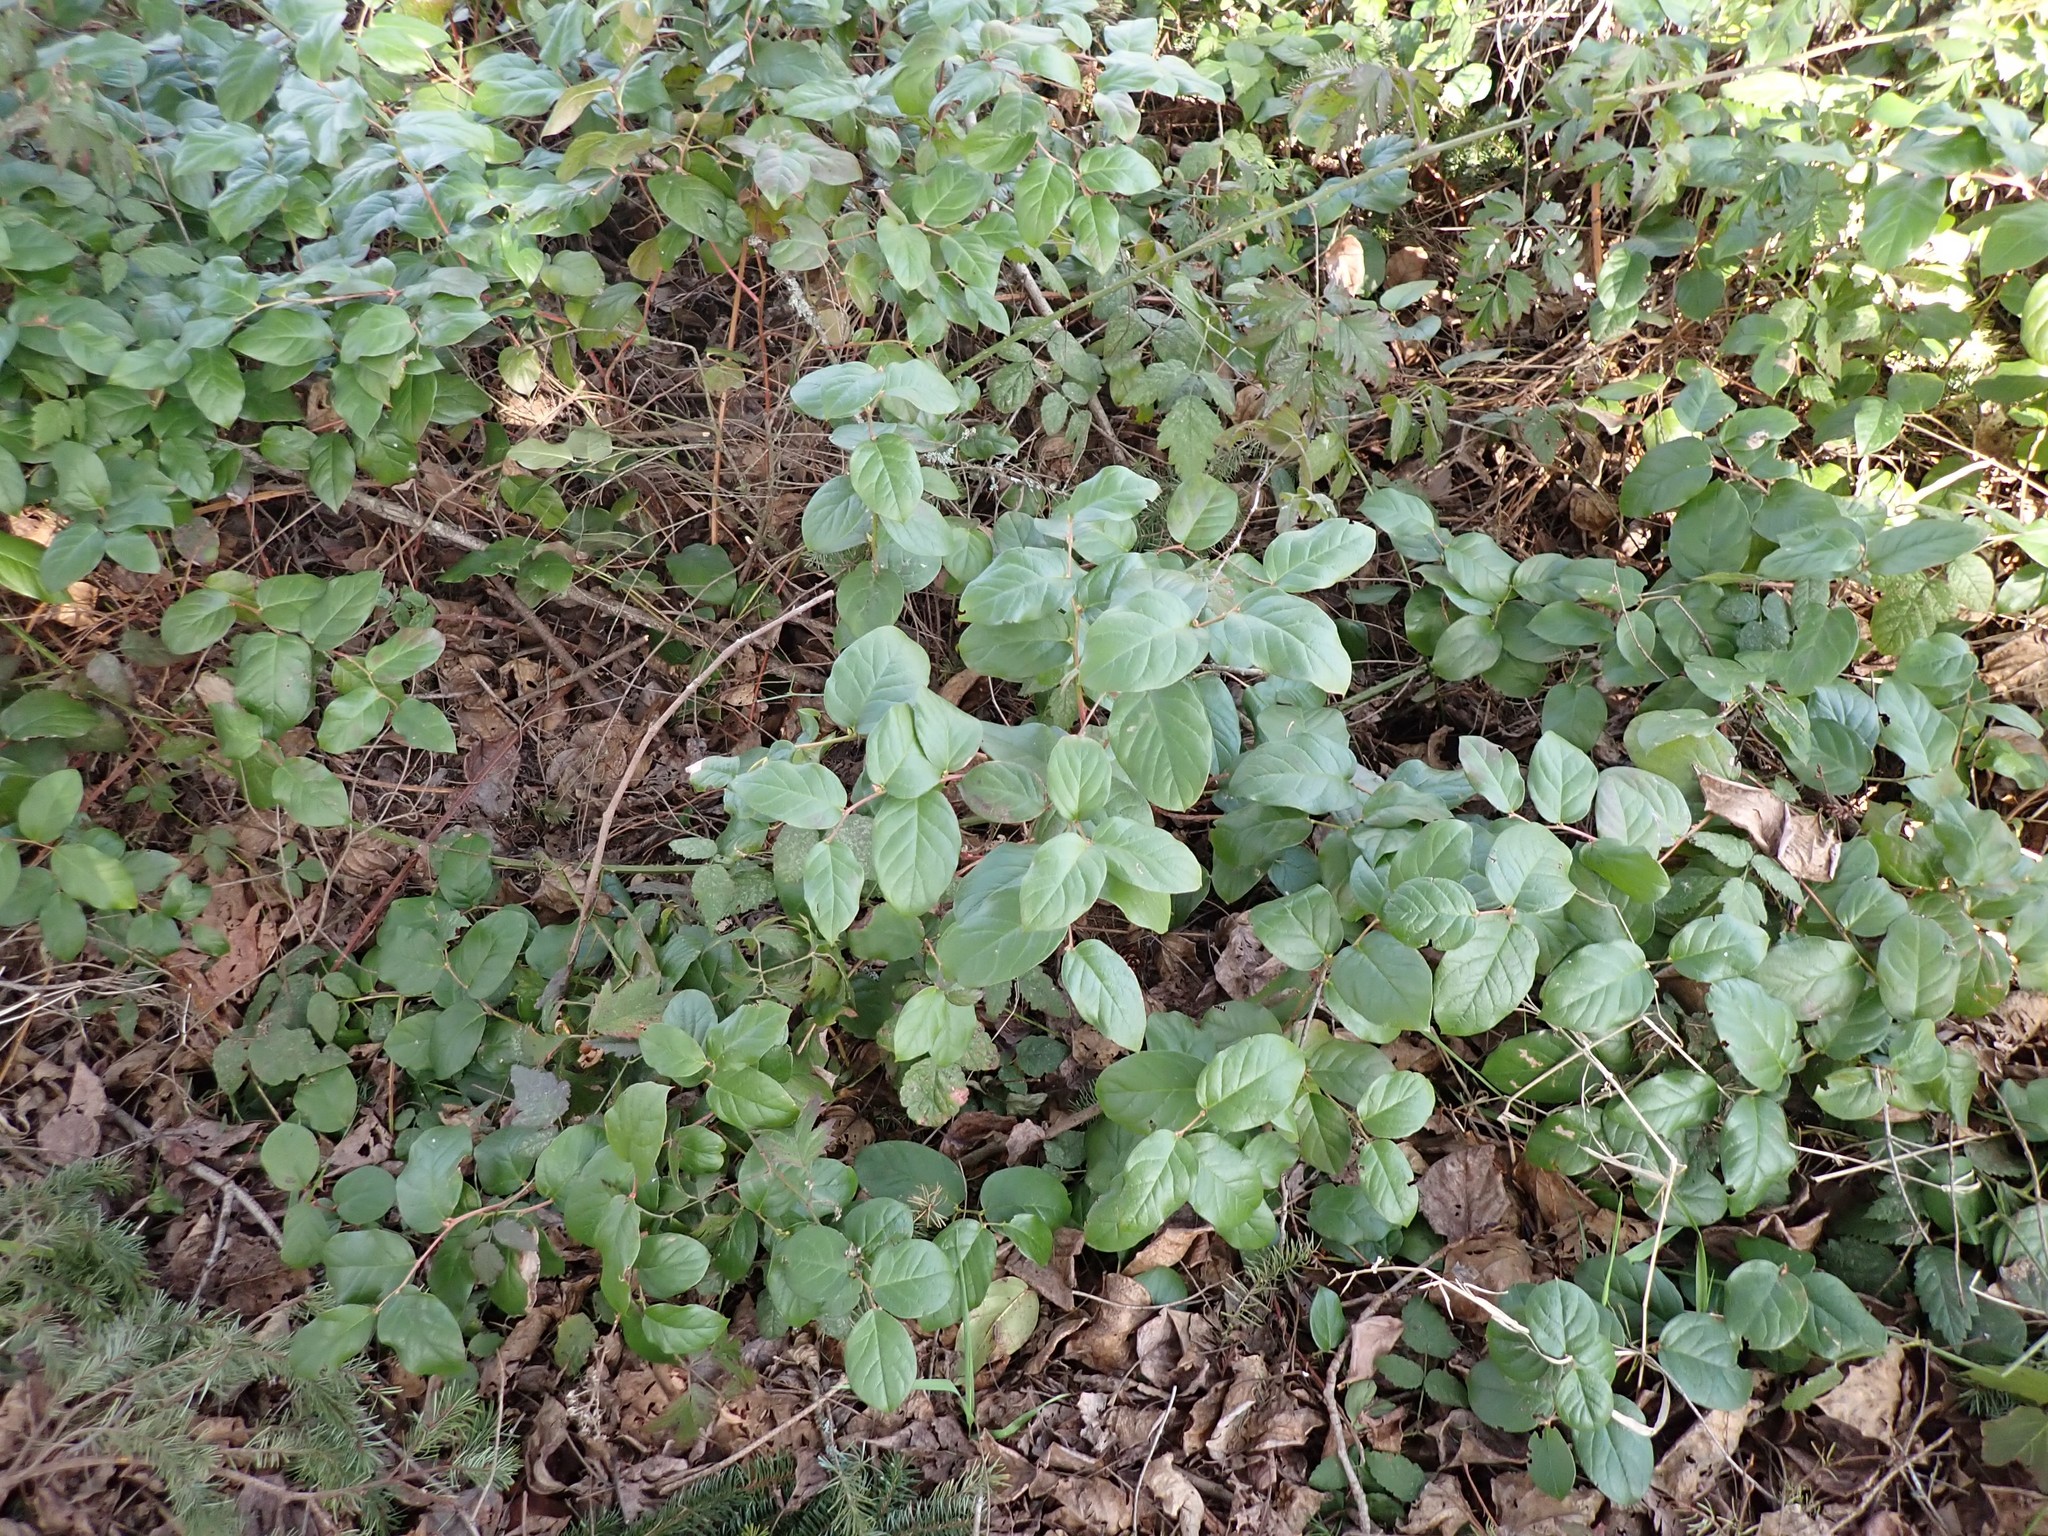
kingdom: Plantae
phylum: Tracheophyta
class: Magnoliopsida
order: Ericales
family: Ericaceae
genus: Gaultheria
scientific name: Gaultheria shallon
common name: Shallon
